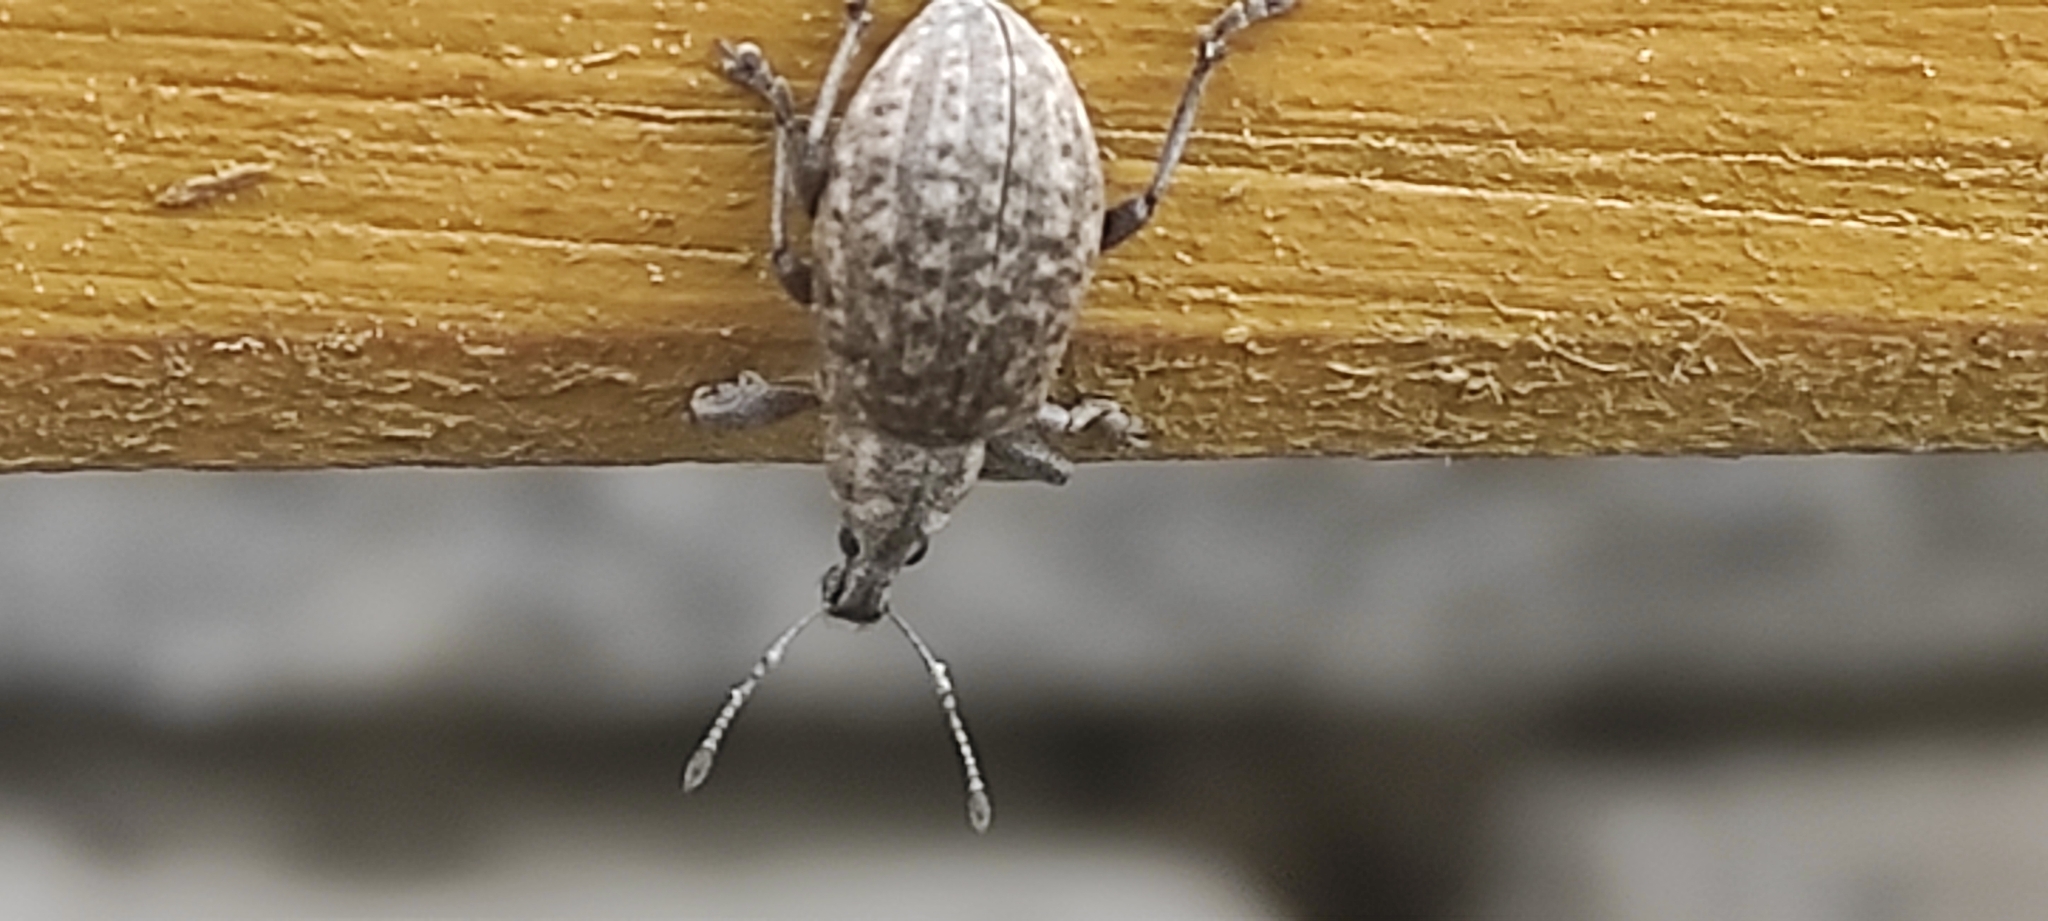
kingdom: Animalia
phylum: Arthropoda
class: Insecta
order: Coleoptera
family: Curculionidae
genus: Liophloeus
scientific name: Liophloeus tessulatus
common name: Weevil
